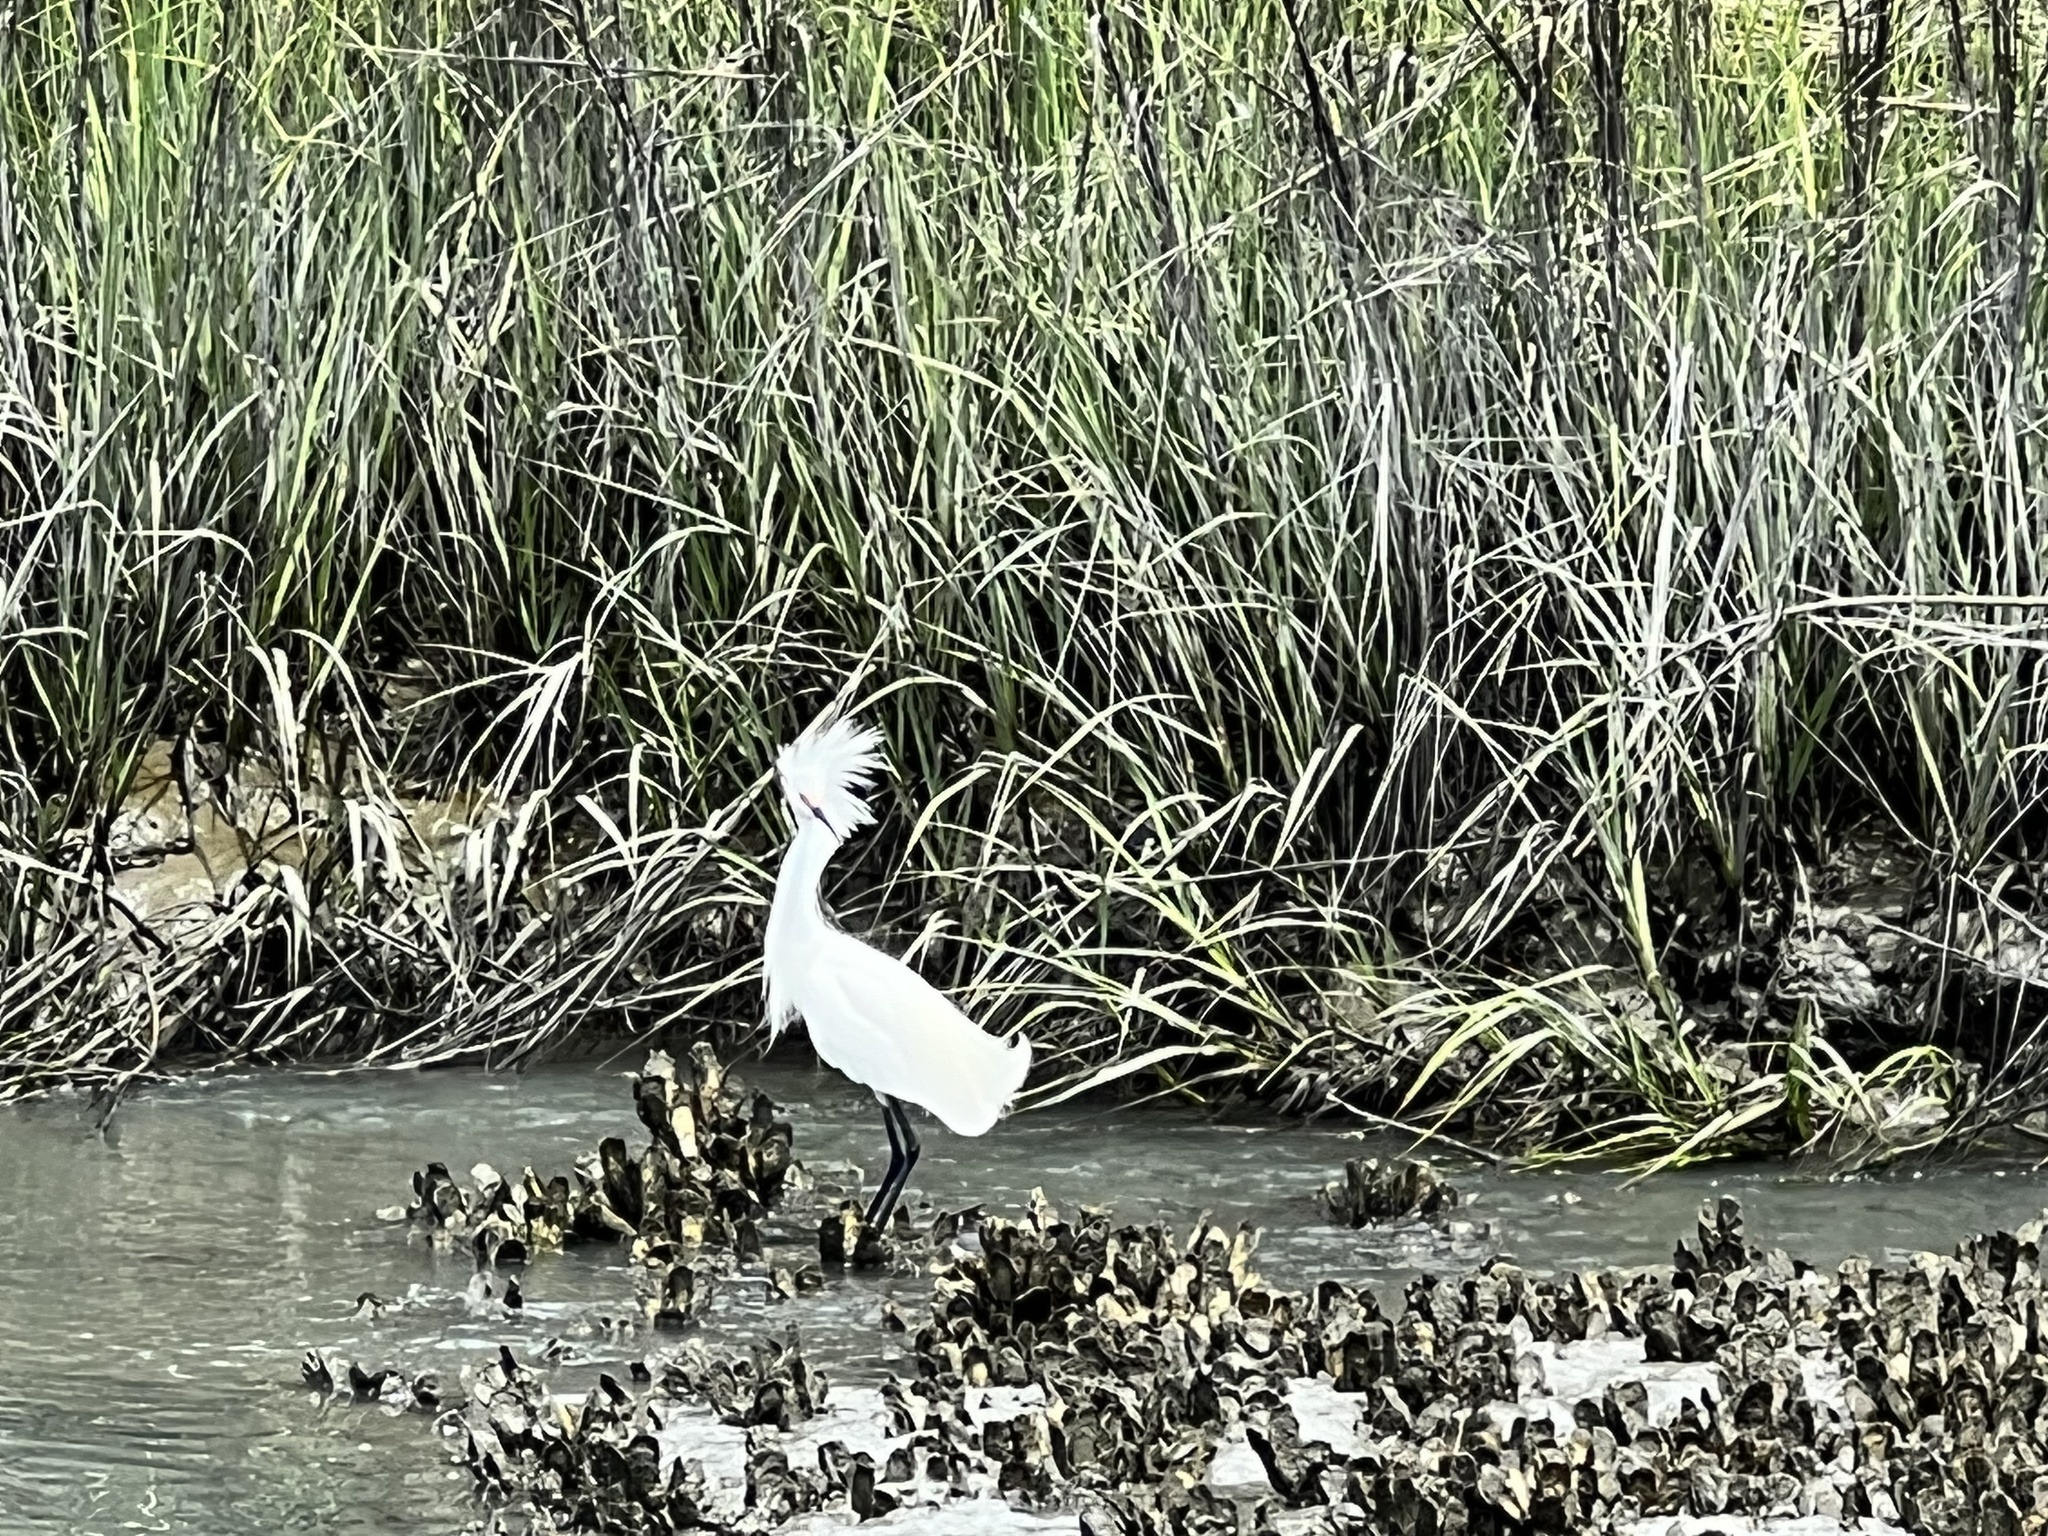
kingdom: Animalia
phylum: Chordata
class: Aves
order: Pelecaniformes
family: Ardeidae
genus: Egretta
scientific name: Egretta thula
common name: Snowy egret
